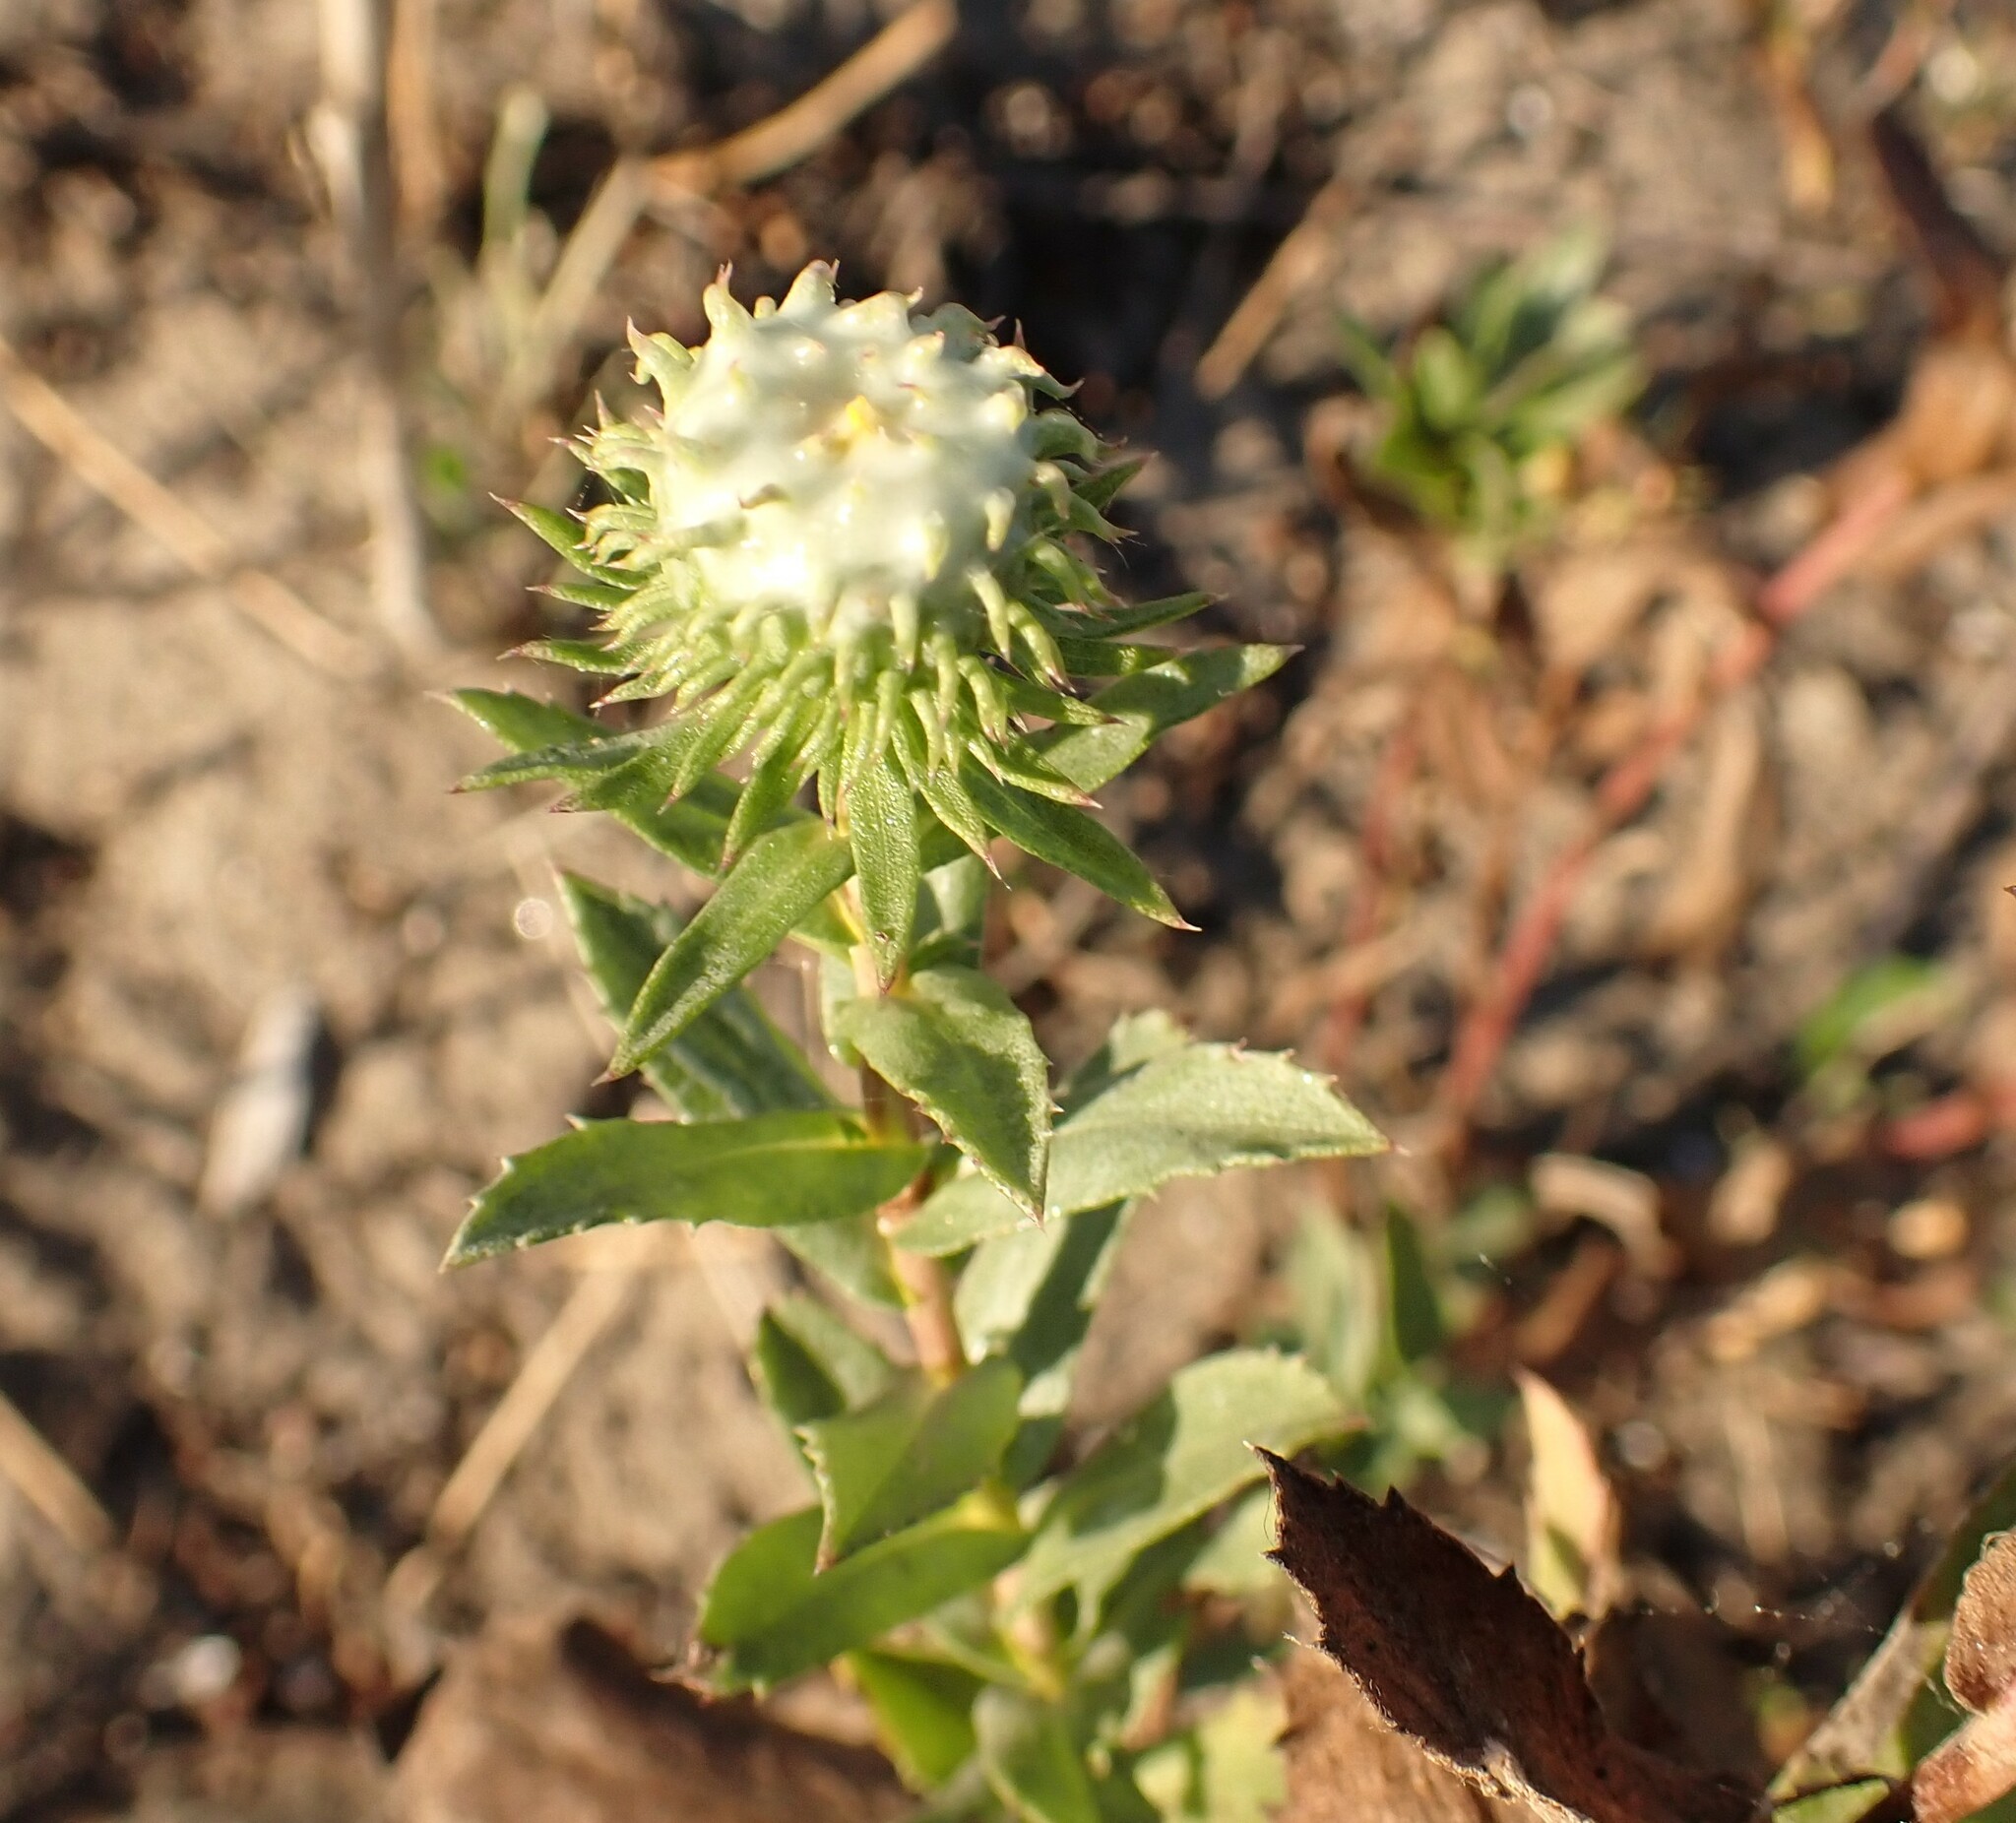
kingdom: Plantae
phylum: Tracheophyta
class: Magnoliopsida
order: Asterales
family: Asteraceae
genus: Grindelia
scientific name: Grindelia hirsutula
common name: Hairy gumweed
